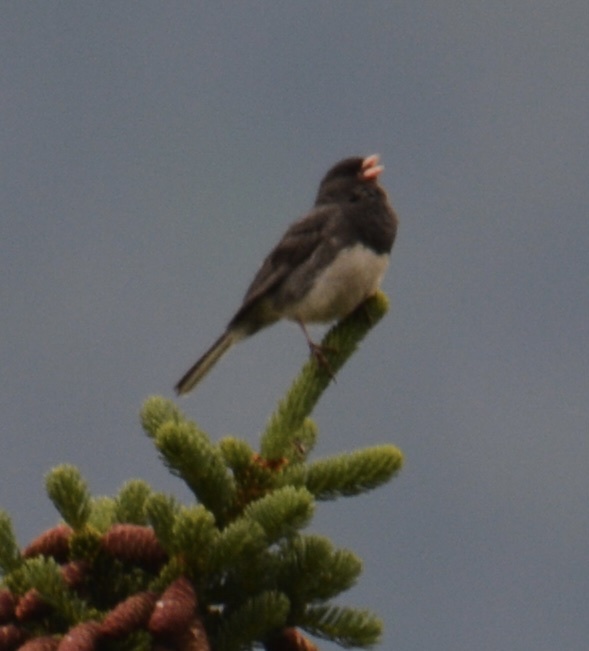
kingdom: Animalia
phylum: Chordata
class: Aves
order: Passeriformes
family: Passerellidae
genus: Junco
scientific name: Junco hyemalis
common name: Dark-eyed junco
